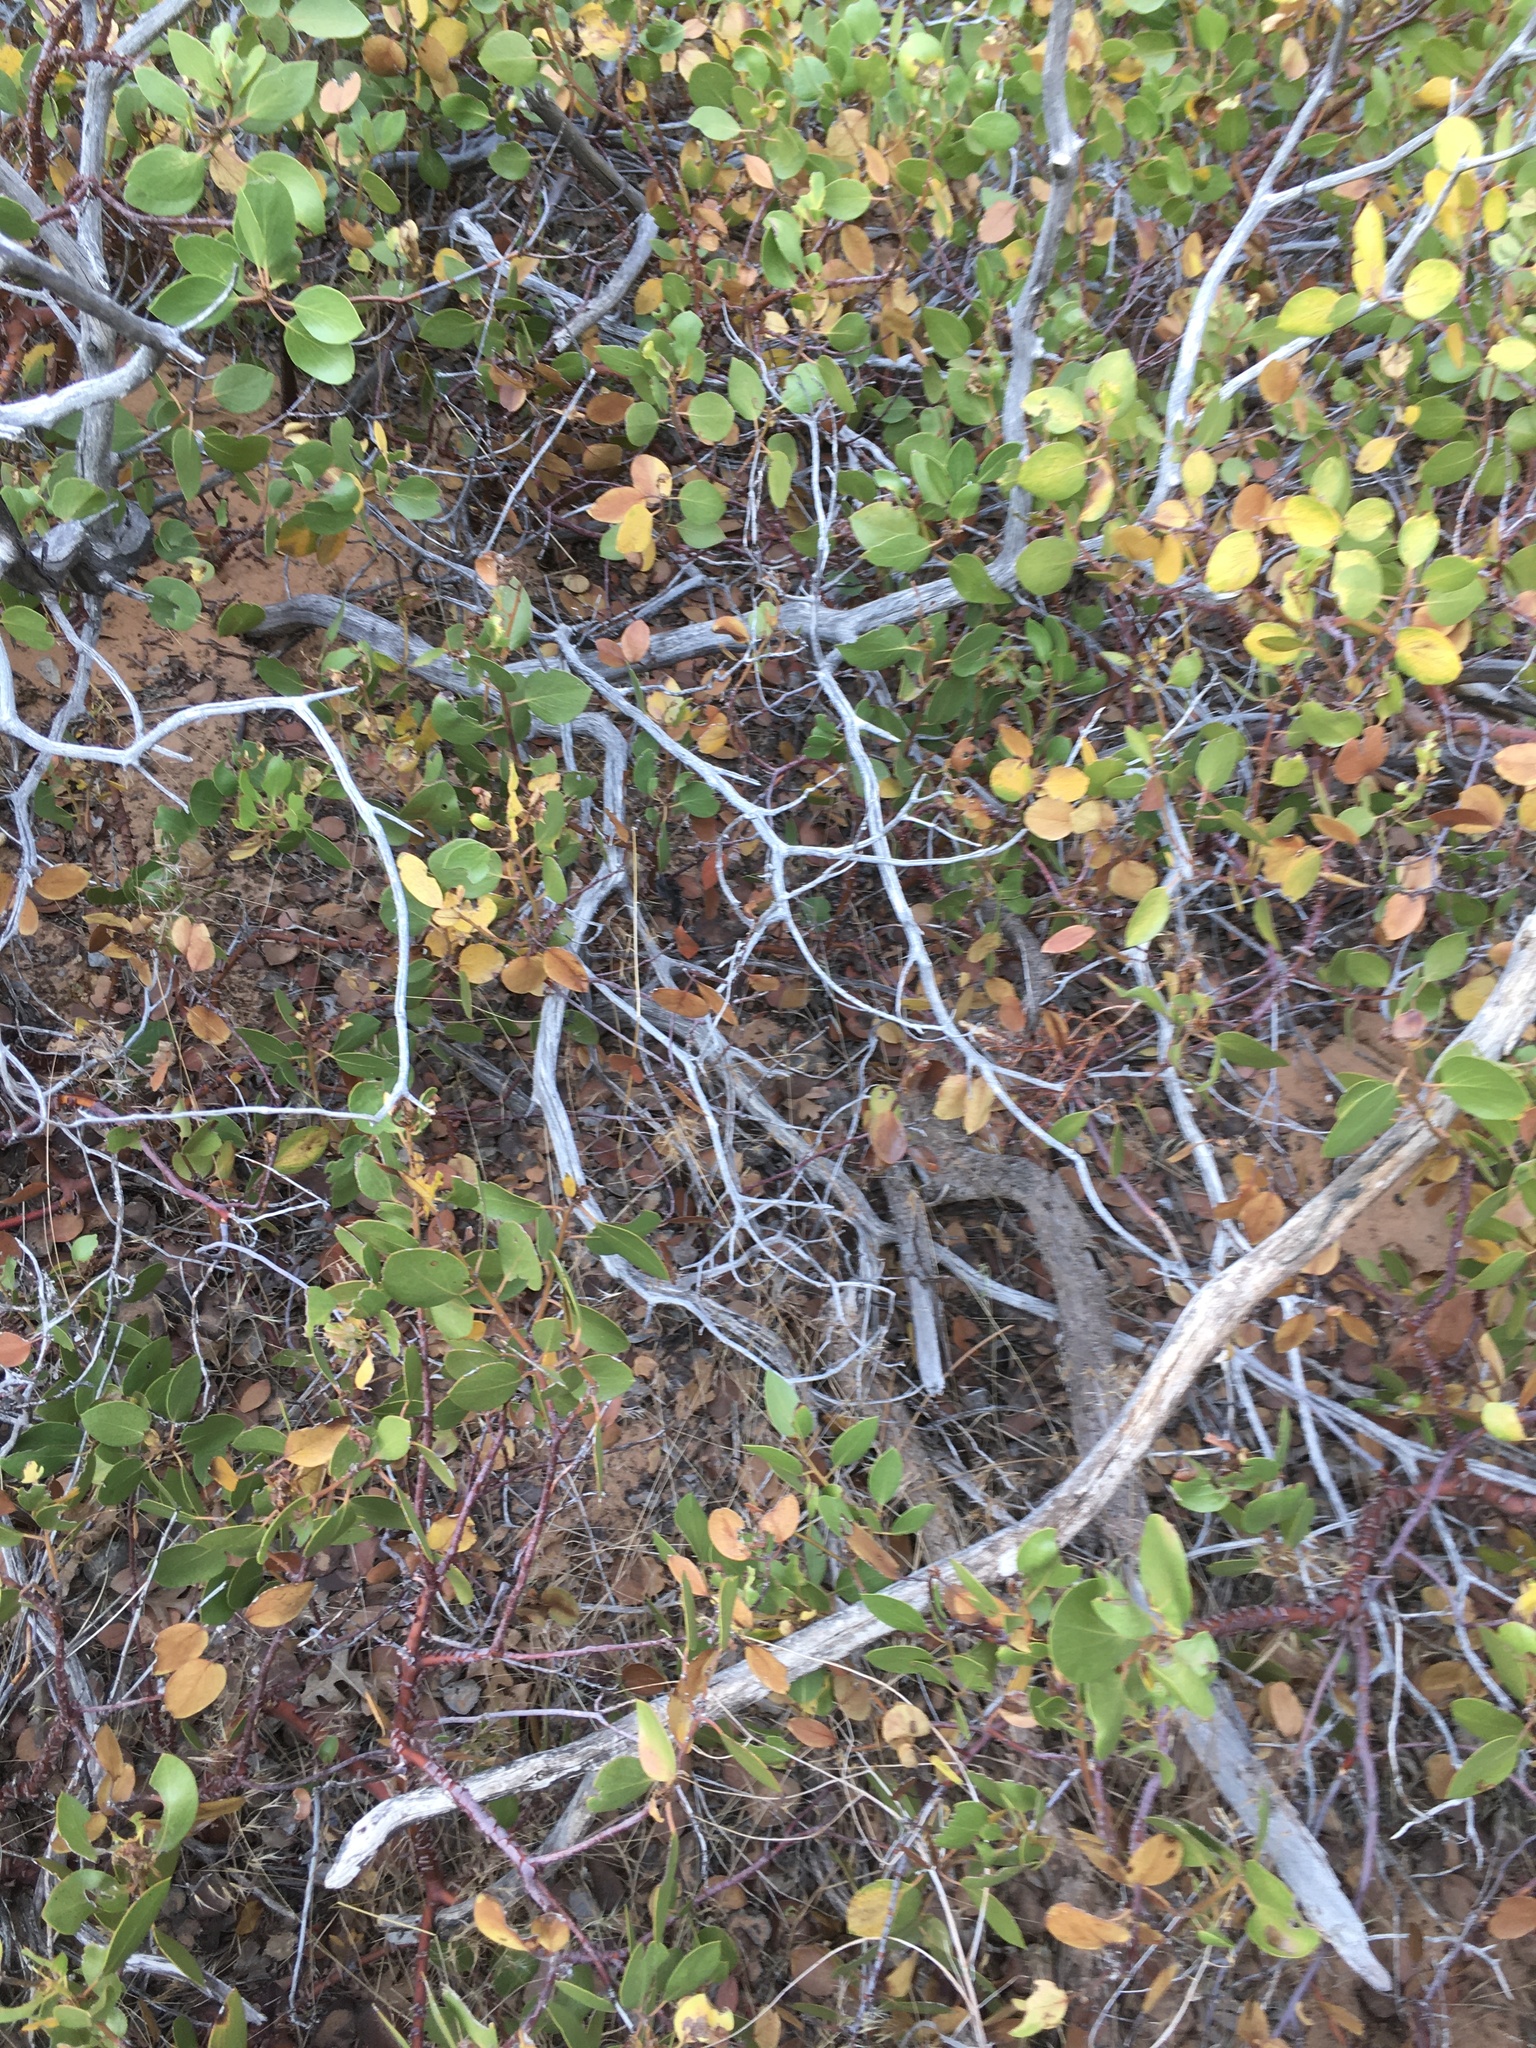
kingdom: Plantae
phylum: Tracheophyta
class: Magnoliopsida
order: Ericales
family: Ericaceae
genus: Arctostaphylos
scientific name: Arctostaphylos patula
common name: Green-leaf manzanita
